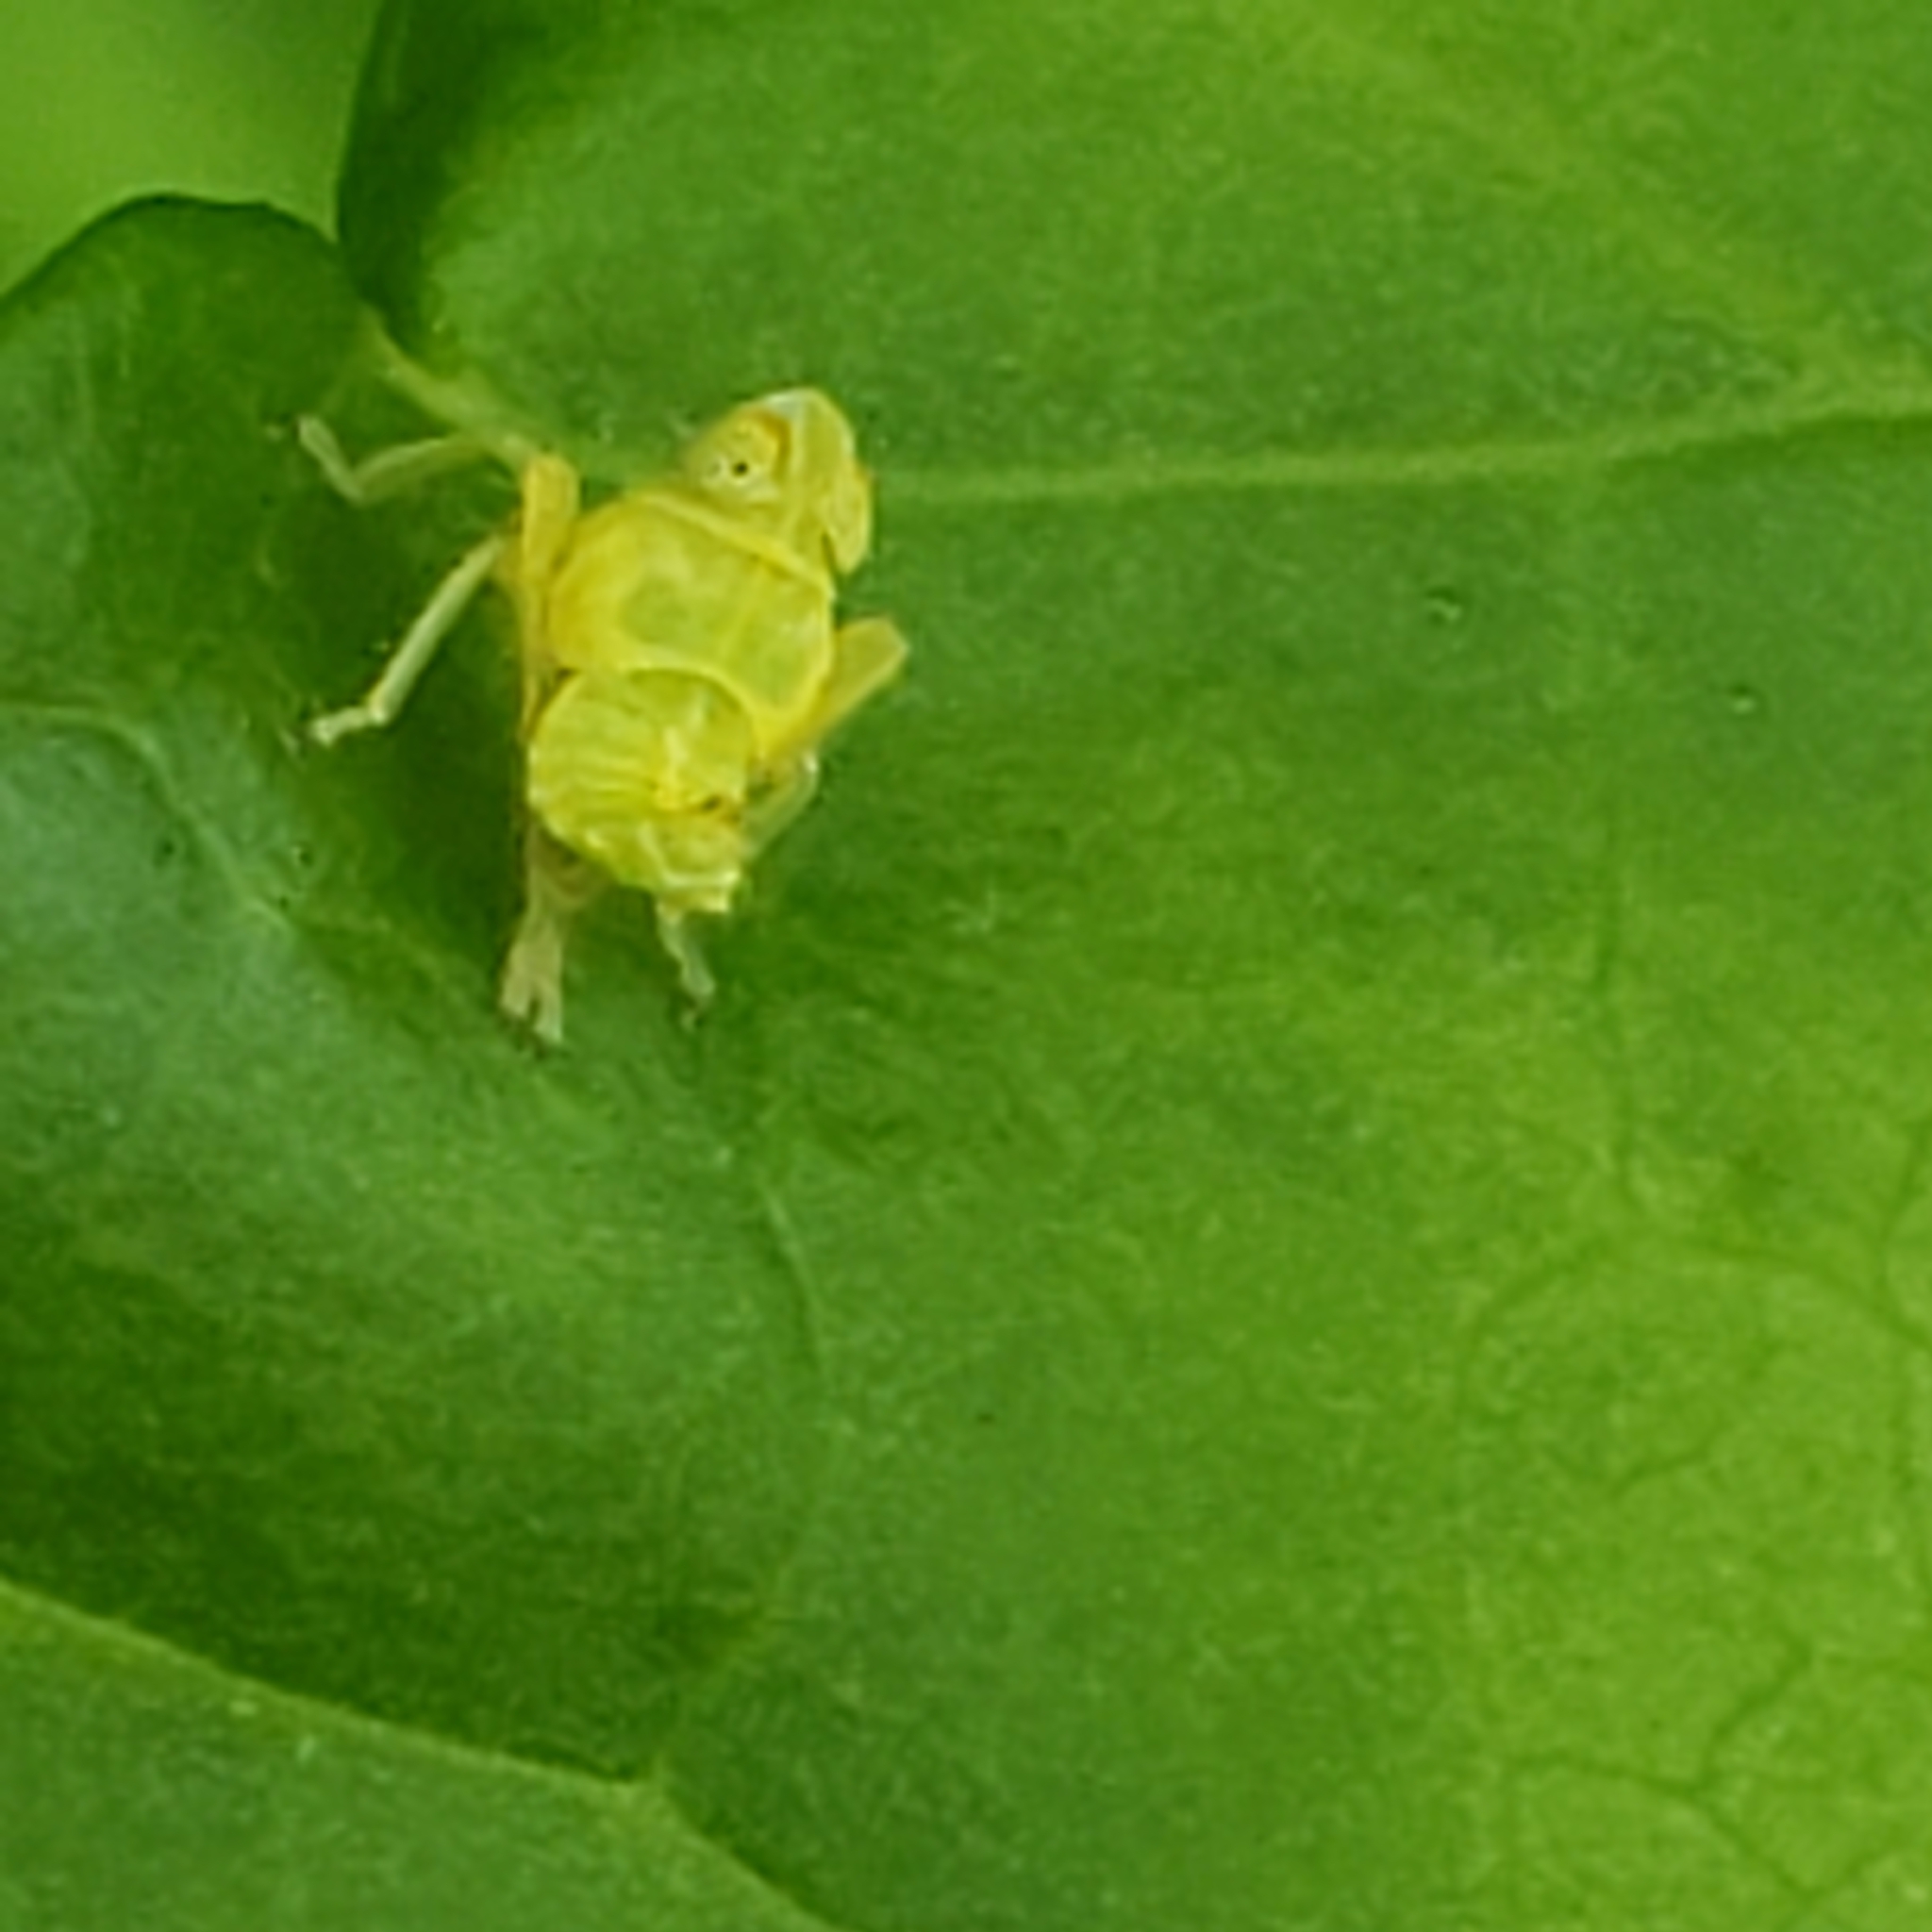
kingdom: Animalia
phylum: Arthropoda
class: Insecta
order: Hemiptera
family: Cicadellidae
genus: Jikradia
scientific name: Jikradia olitoria
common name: Coppery leafhopper
